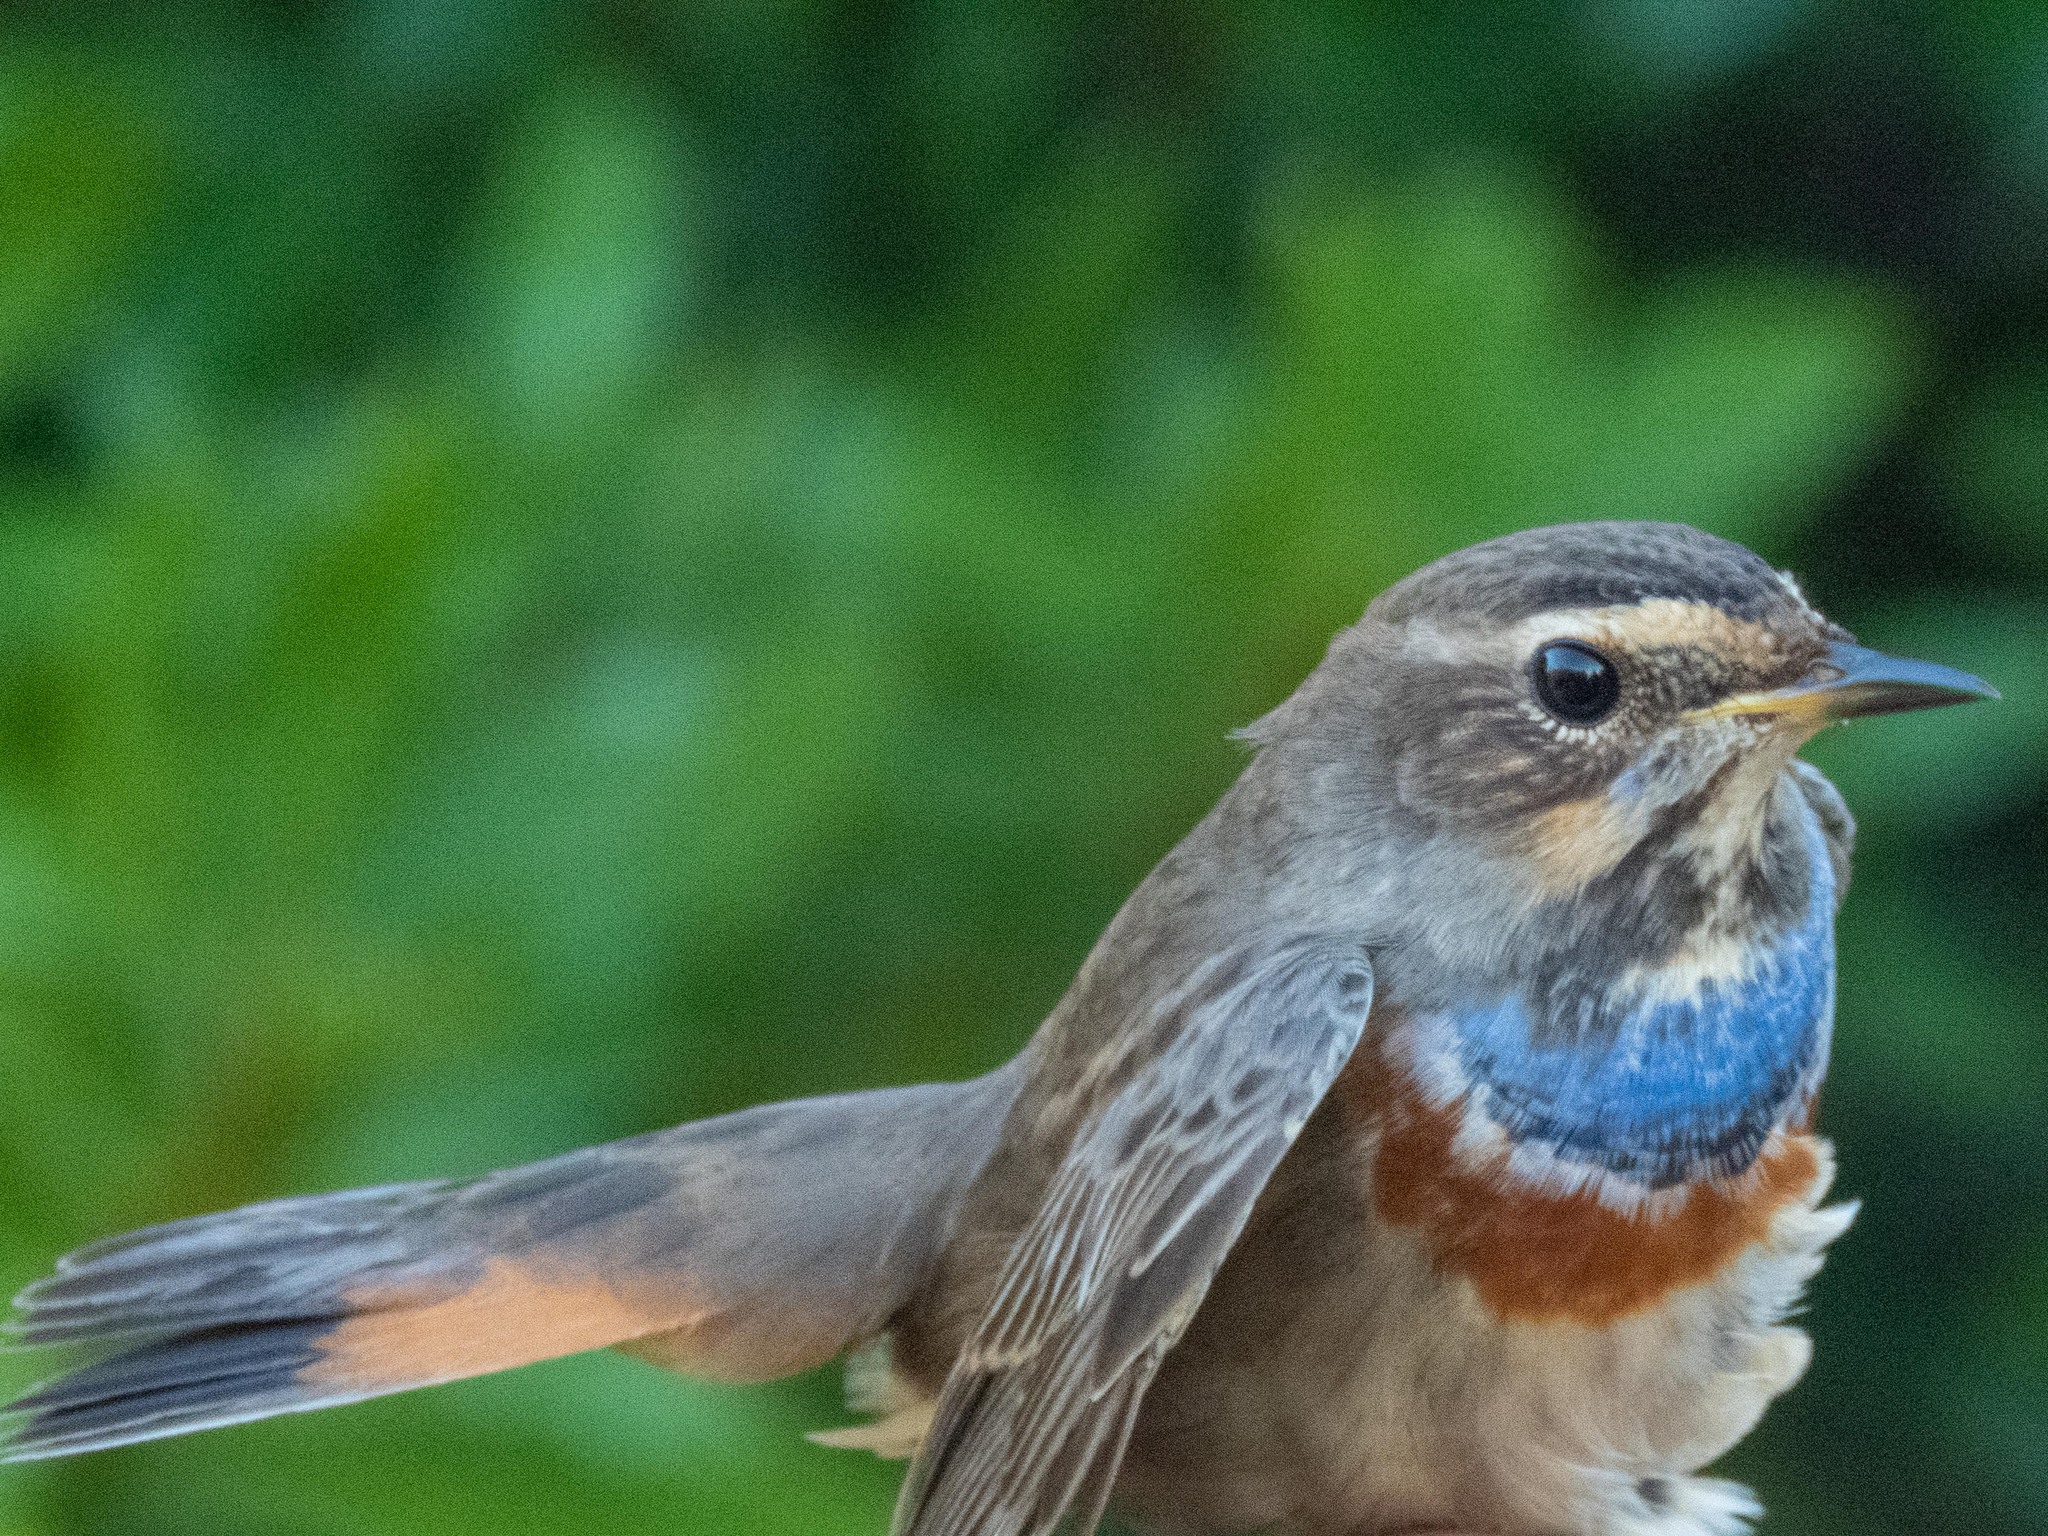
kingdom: Animalia
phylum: Chordata
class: Aves
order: Passeriformes
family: Muscicapidae
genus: Luscinia
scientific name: Luscinia svecica
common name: Bluethroat
